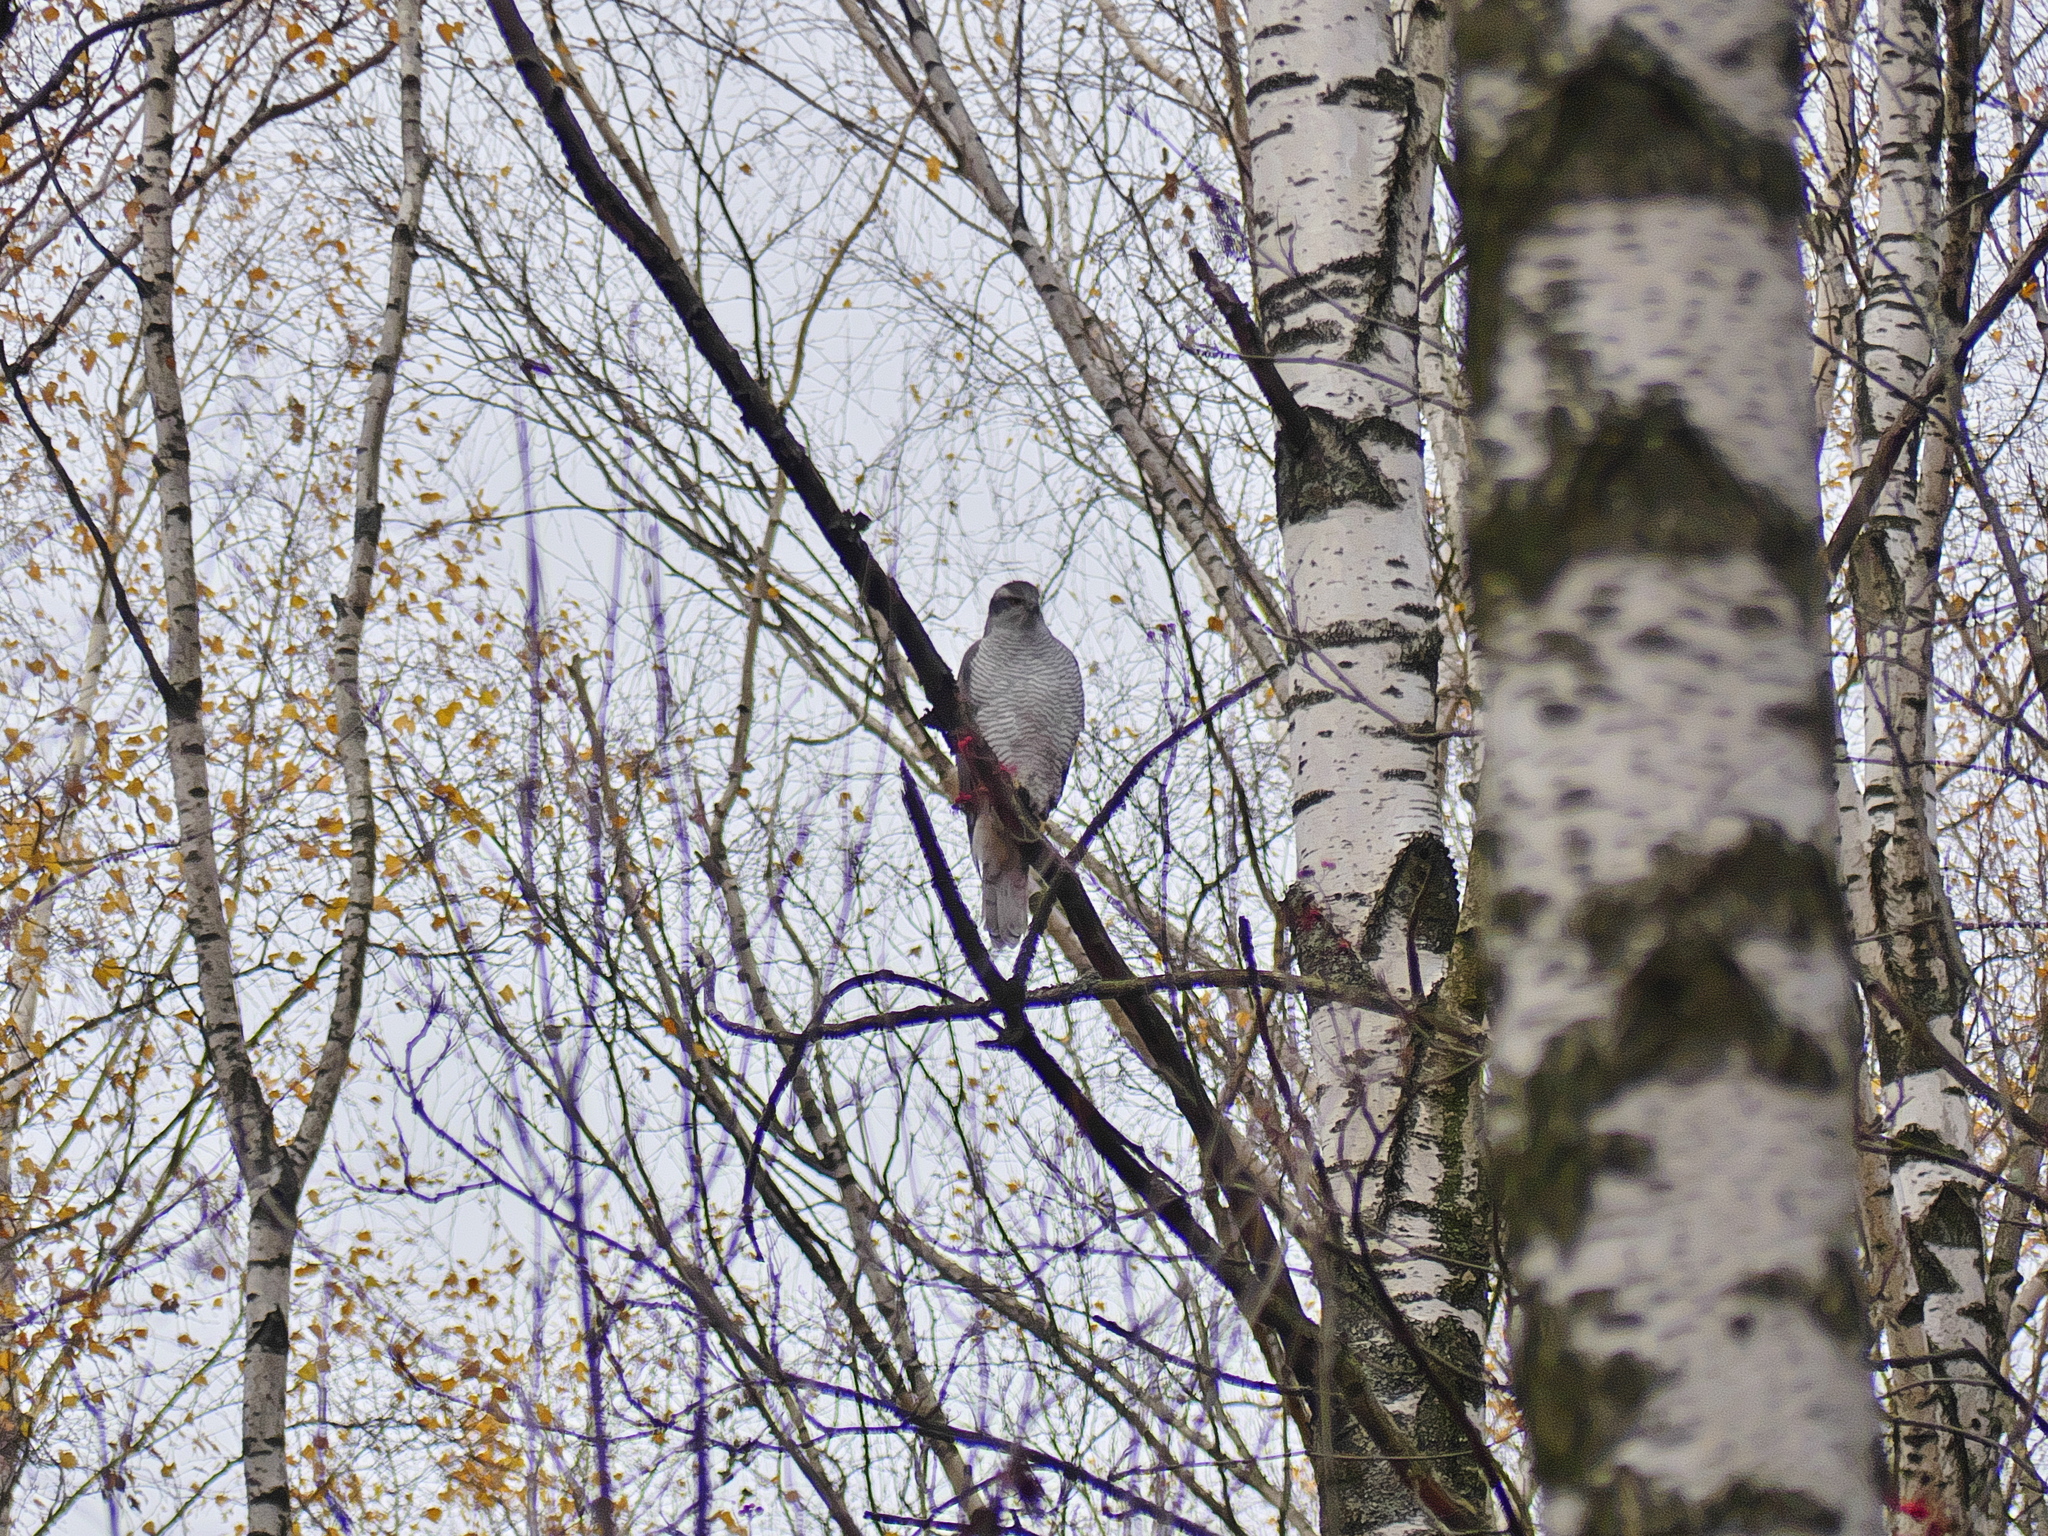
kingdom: Animalia
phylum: Chordata
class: Aves
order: Accipitriformes
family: Accipitridae
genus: Accipiter
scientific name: Accipiter gentilis
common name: Northern goshawk
